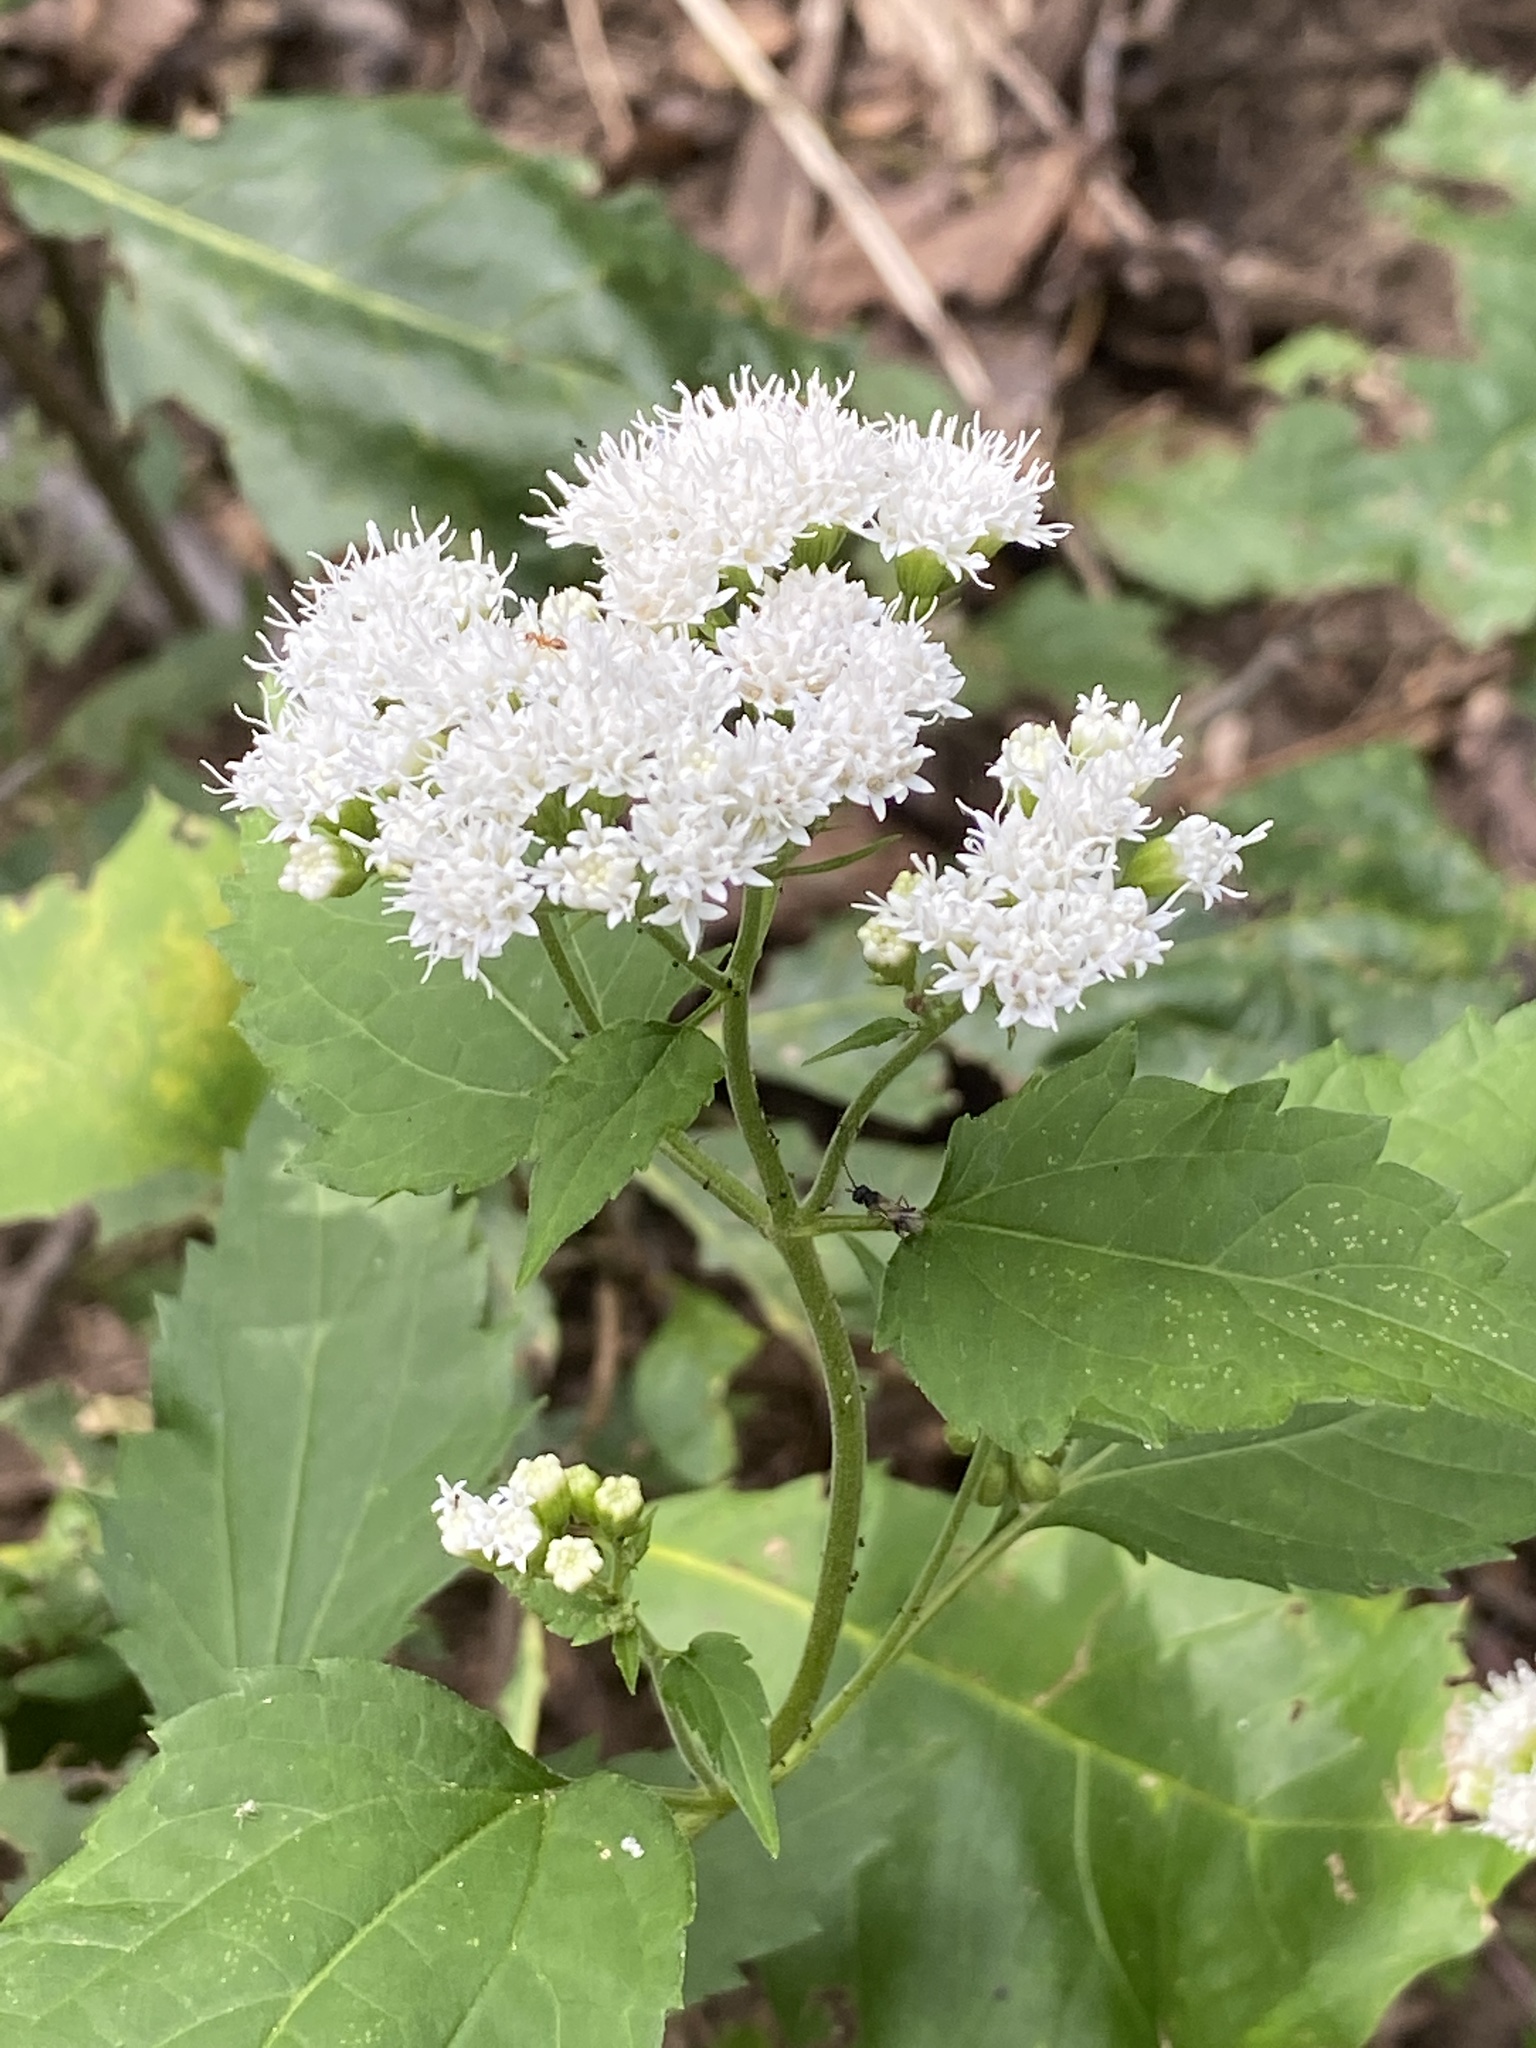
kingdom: Plantae
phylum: Tracheophyta
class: Magnoliopsida
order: Asterales
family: Asteraceae
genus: Ageratina
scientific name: Ageratina altissima
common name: White snakeroot
